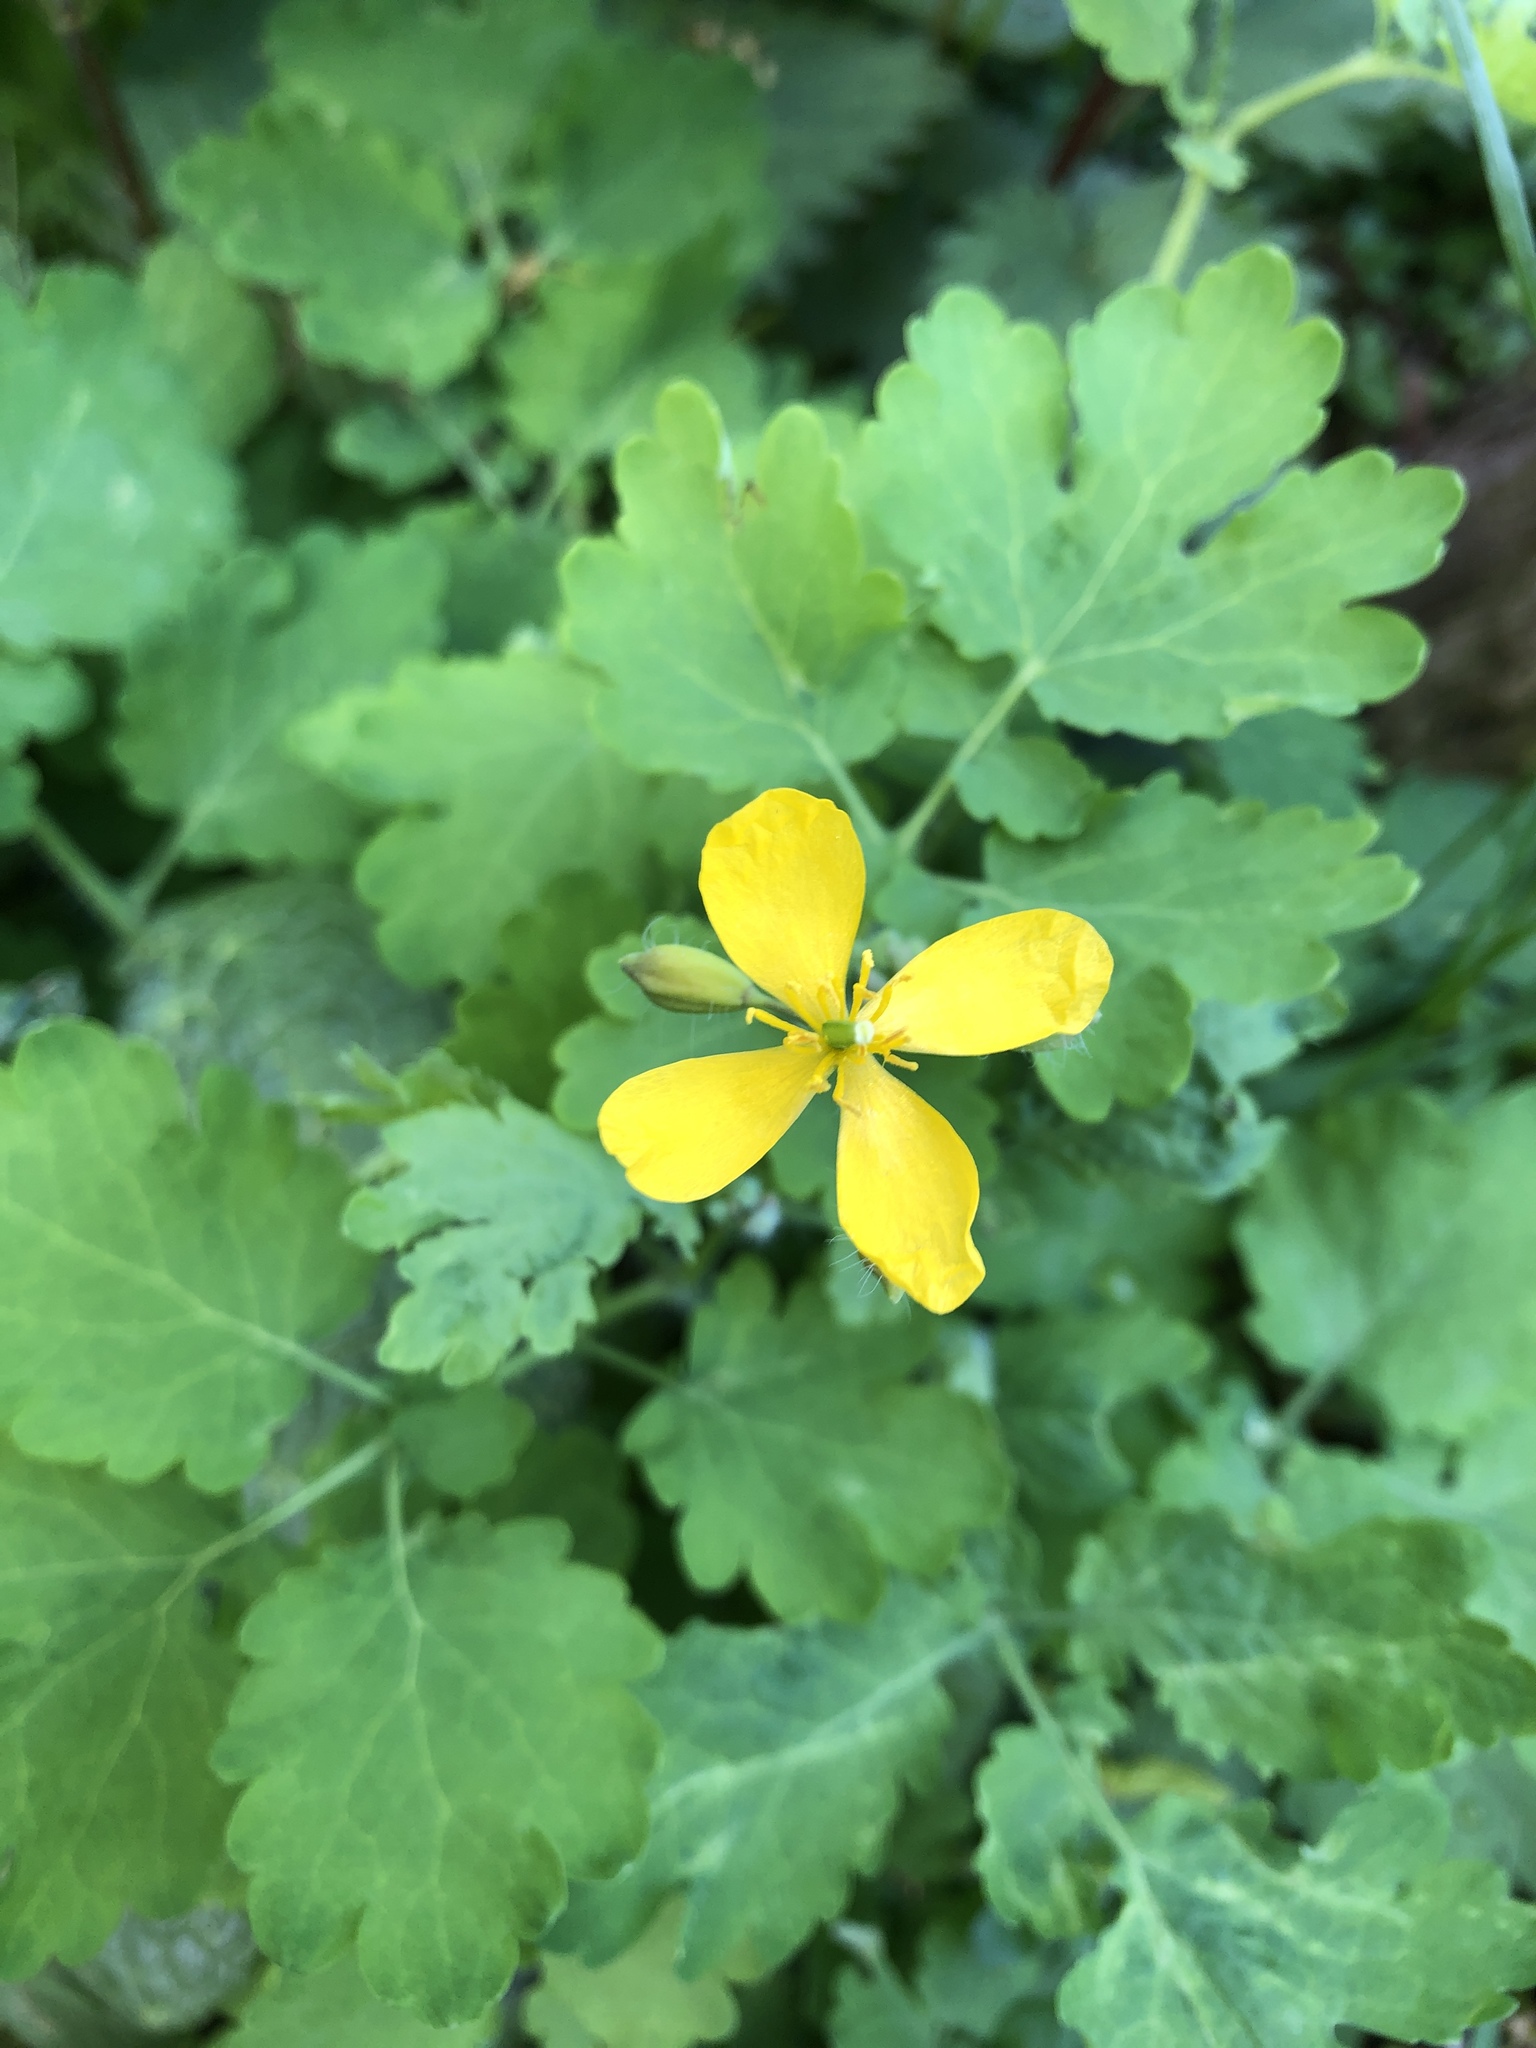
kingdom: Plantae
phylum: Tracheophyta
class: Magnoliopsida
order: Ranunculales
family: Papaveraceae
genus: Chelidonium
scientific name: Chelidonium majus
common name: Greater celandine
